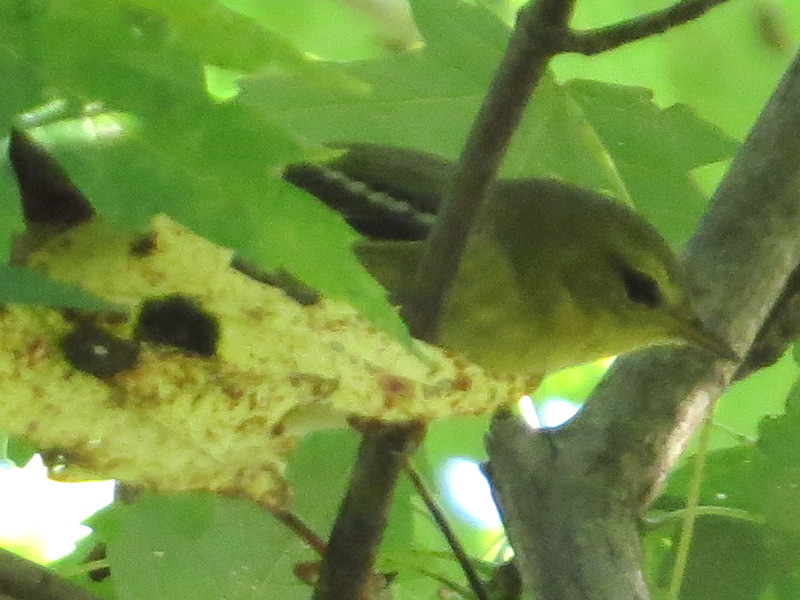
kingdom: Animalia
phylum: Chordata
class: Aves
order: Passeriformes
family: Parulidae
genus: Setophaga
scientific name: Setophaga striata
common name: Blackpoll warbler
